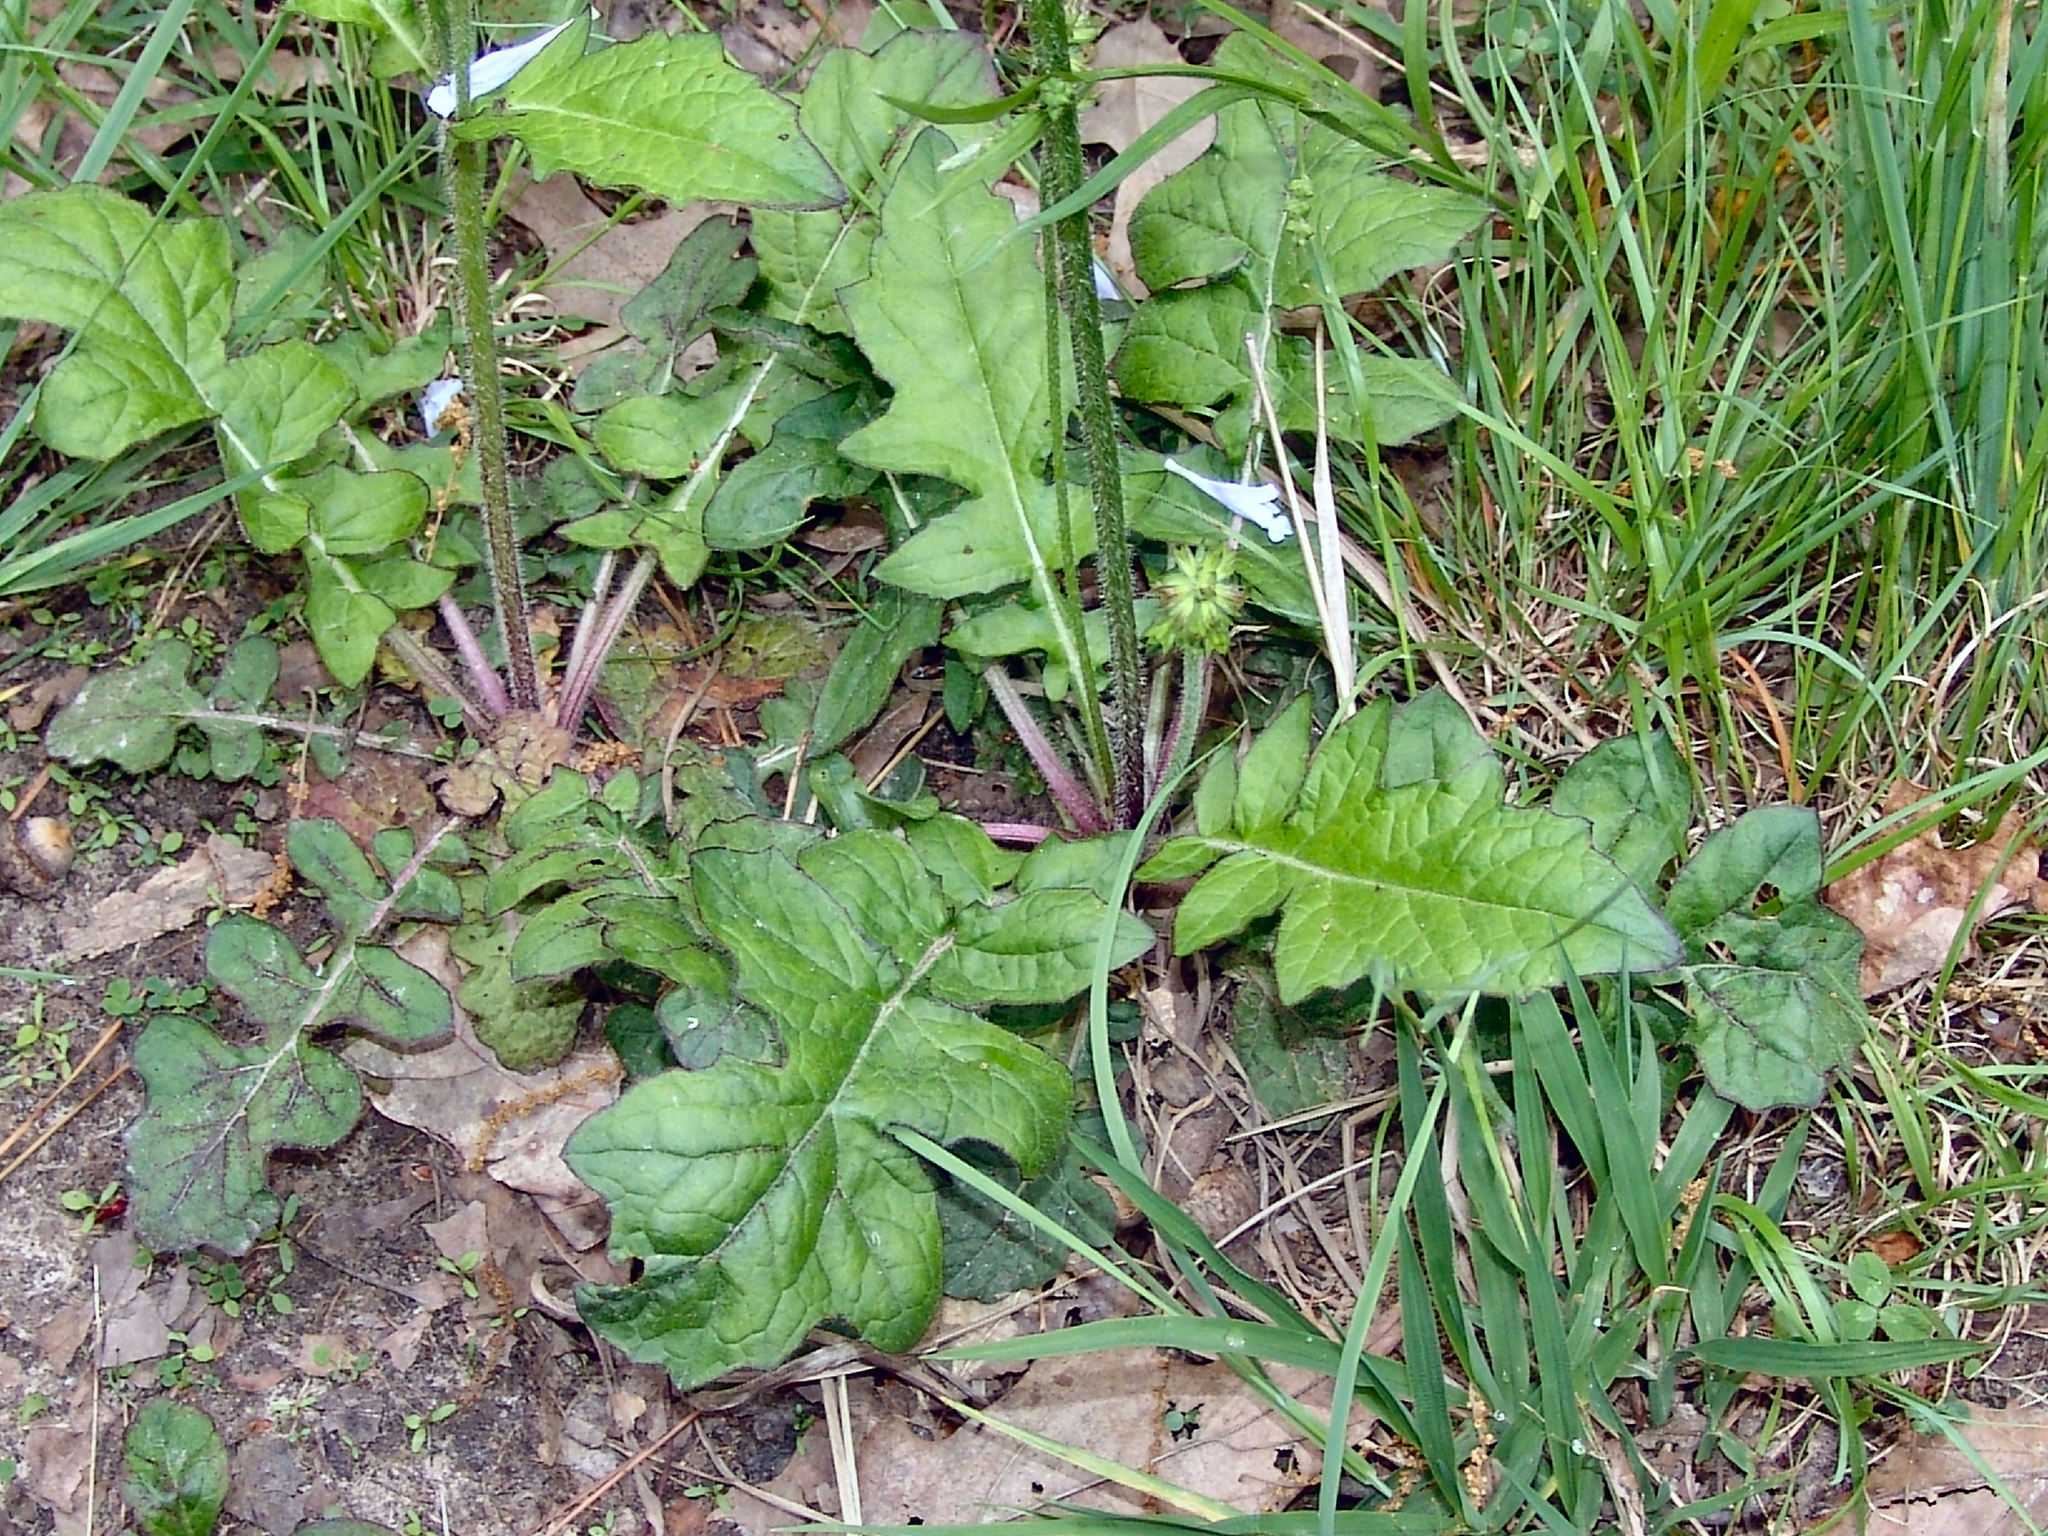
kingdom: Plantae
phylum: Tracheophyta
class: Magnoliopsida
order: Lamiales
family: Lamiaceae
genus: Salvia
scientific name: Salvia lyrata
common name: Cancerweed
